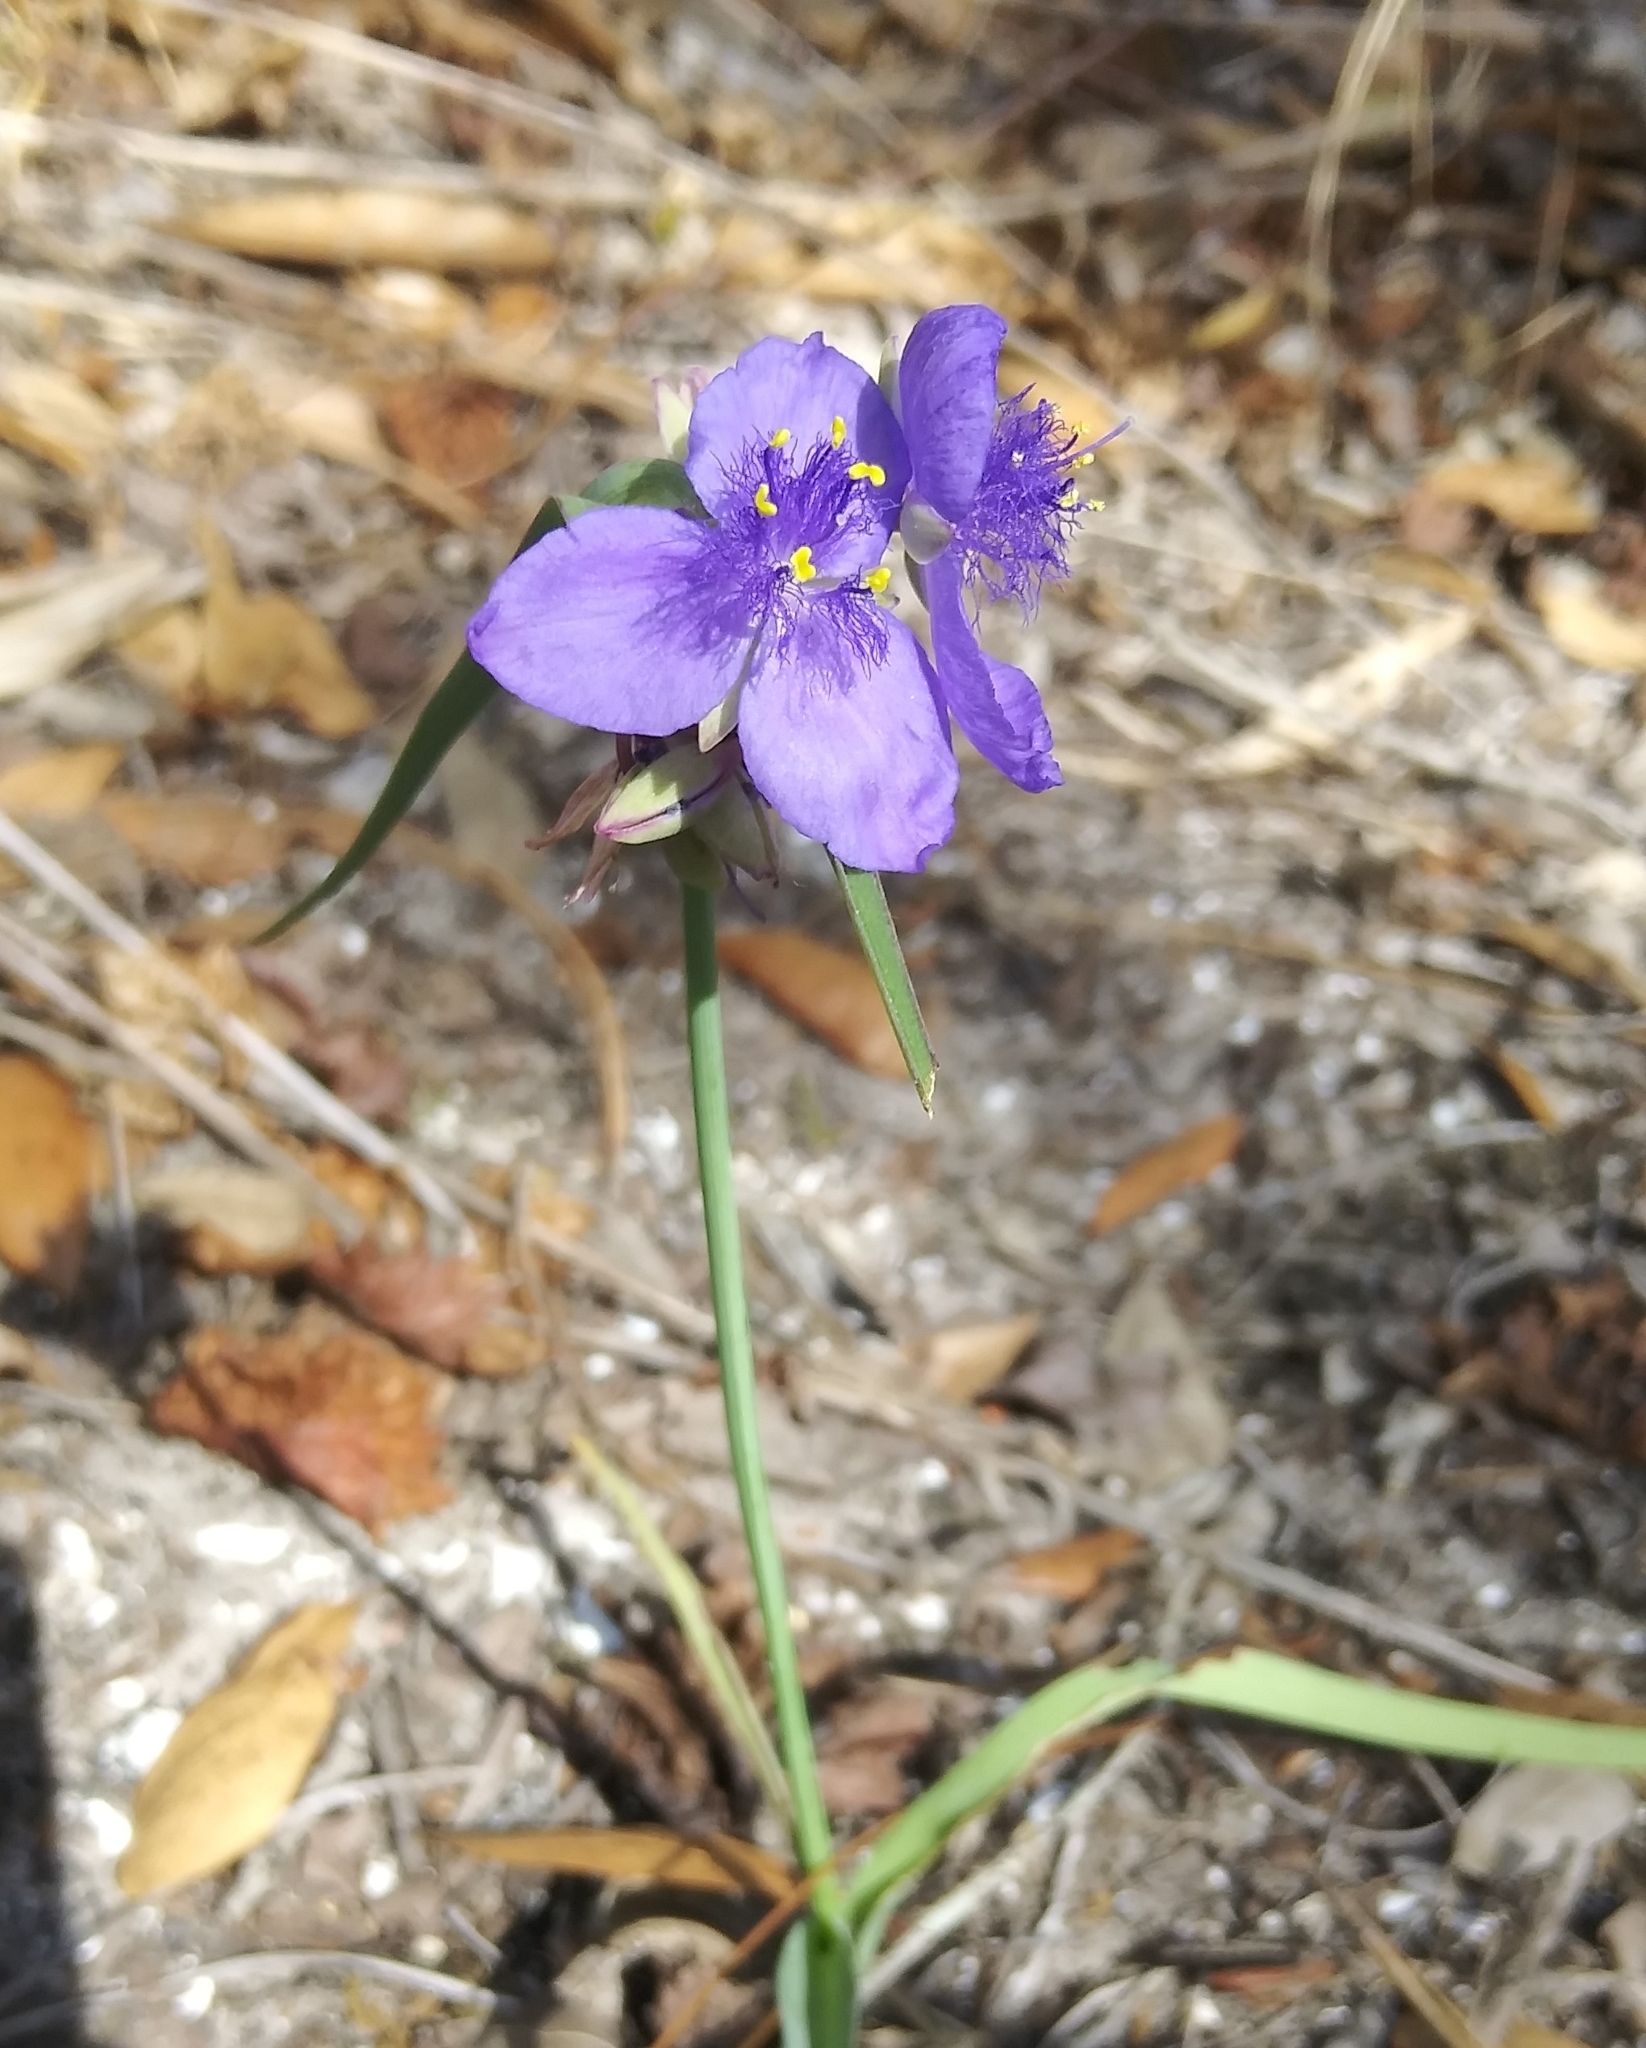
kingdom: Plantae
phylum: Tracheophyta
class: Liliopsida
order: Commelinales
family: Commelinaceae
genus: Tradescantia
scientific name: Tradescantia ohiensis
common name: Ohio spiderwort
